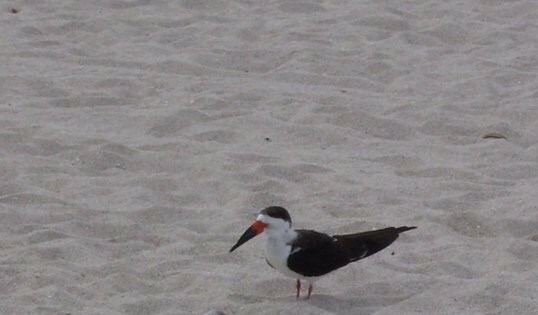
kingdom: Animalia
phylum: Chordata
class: Aves
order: Charadriiformes
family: Laridae
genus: Rynchops
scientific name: Rynchops niger
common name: Black skimmer
